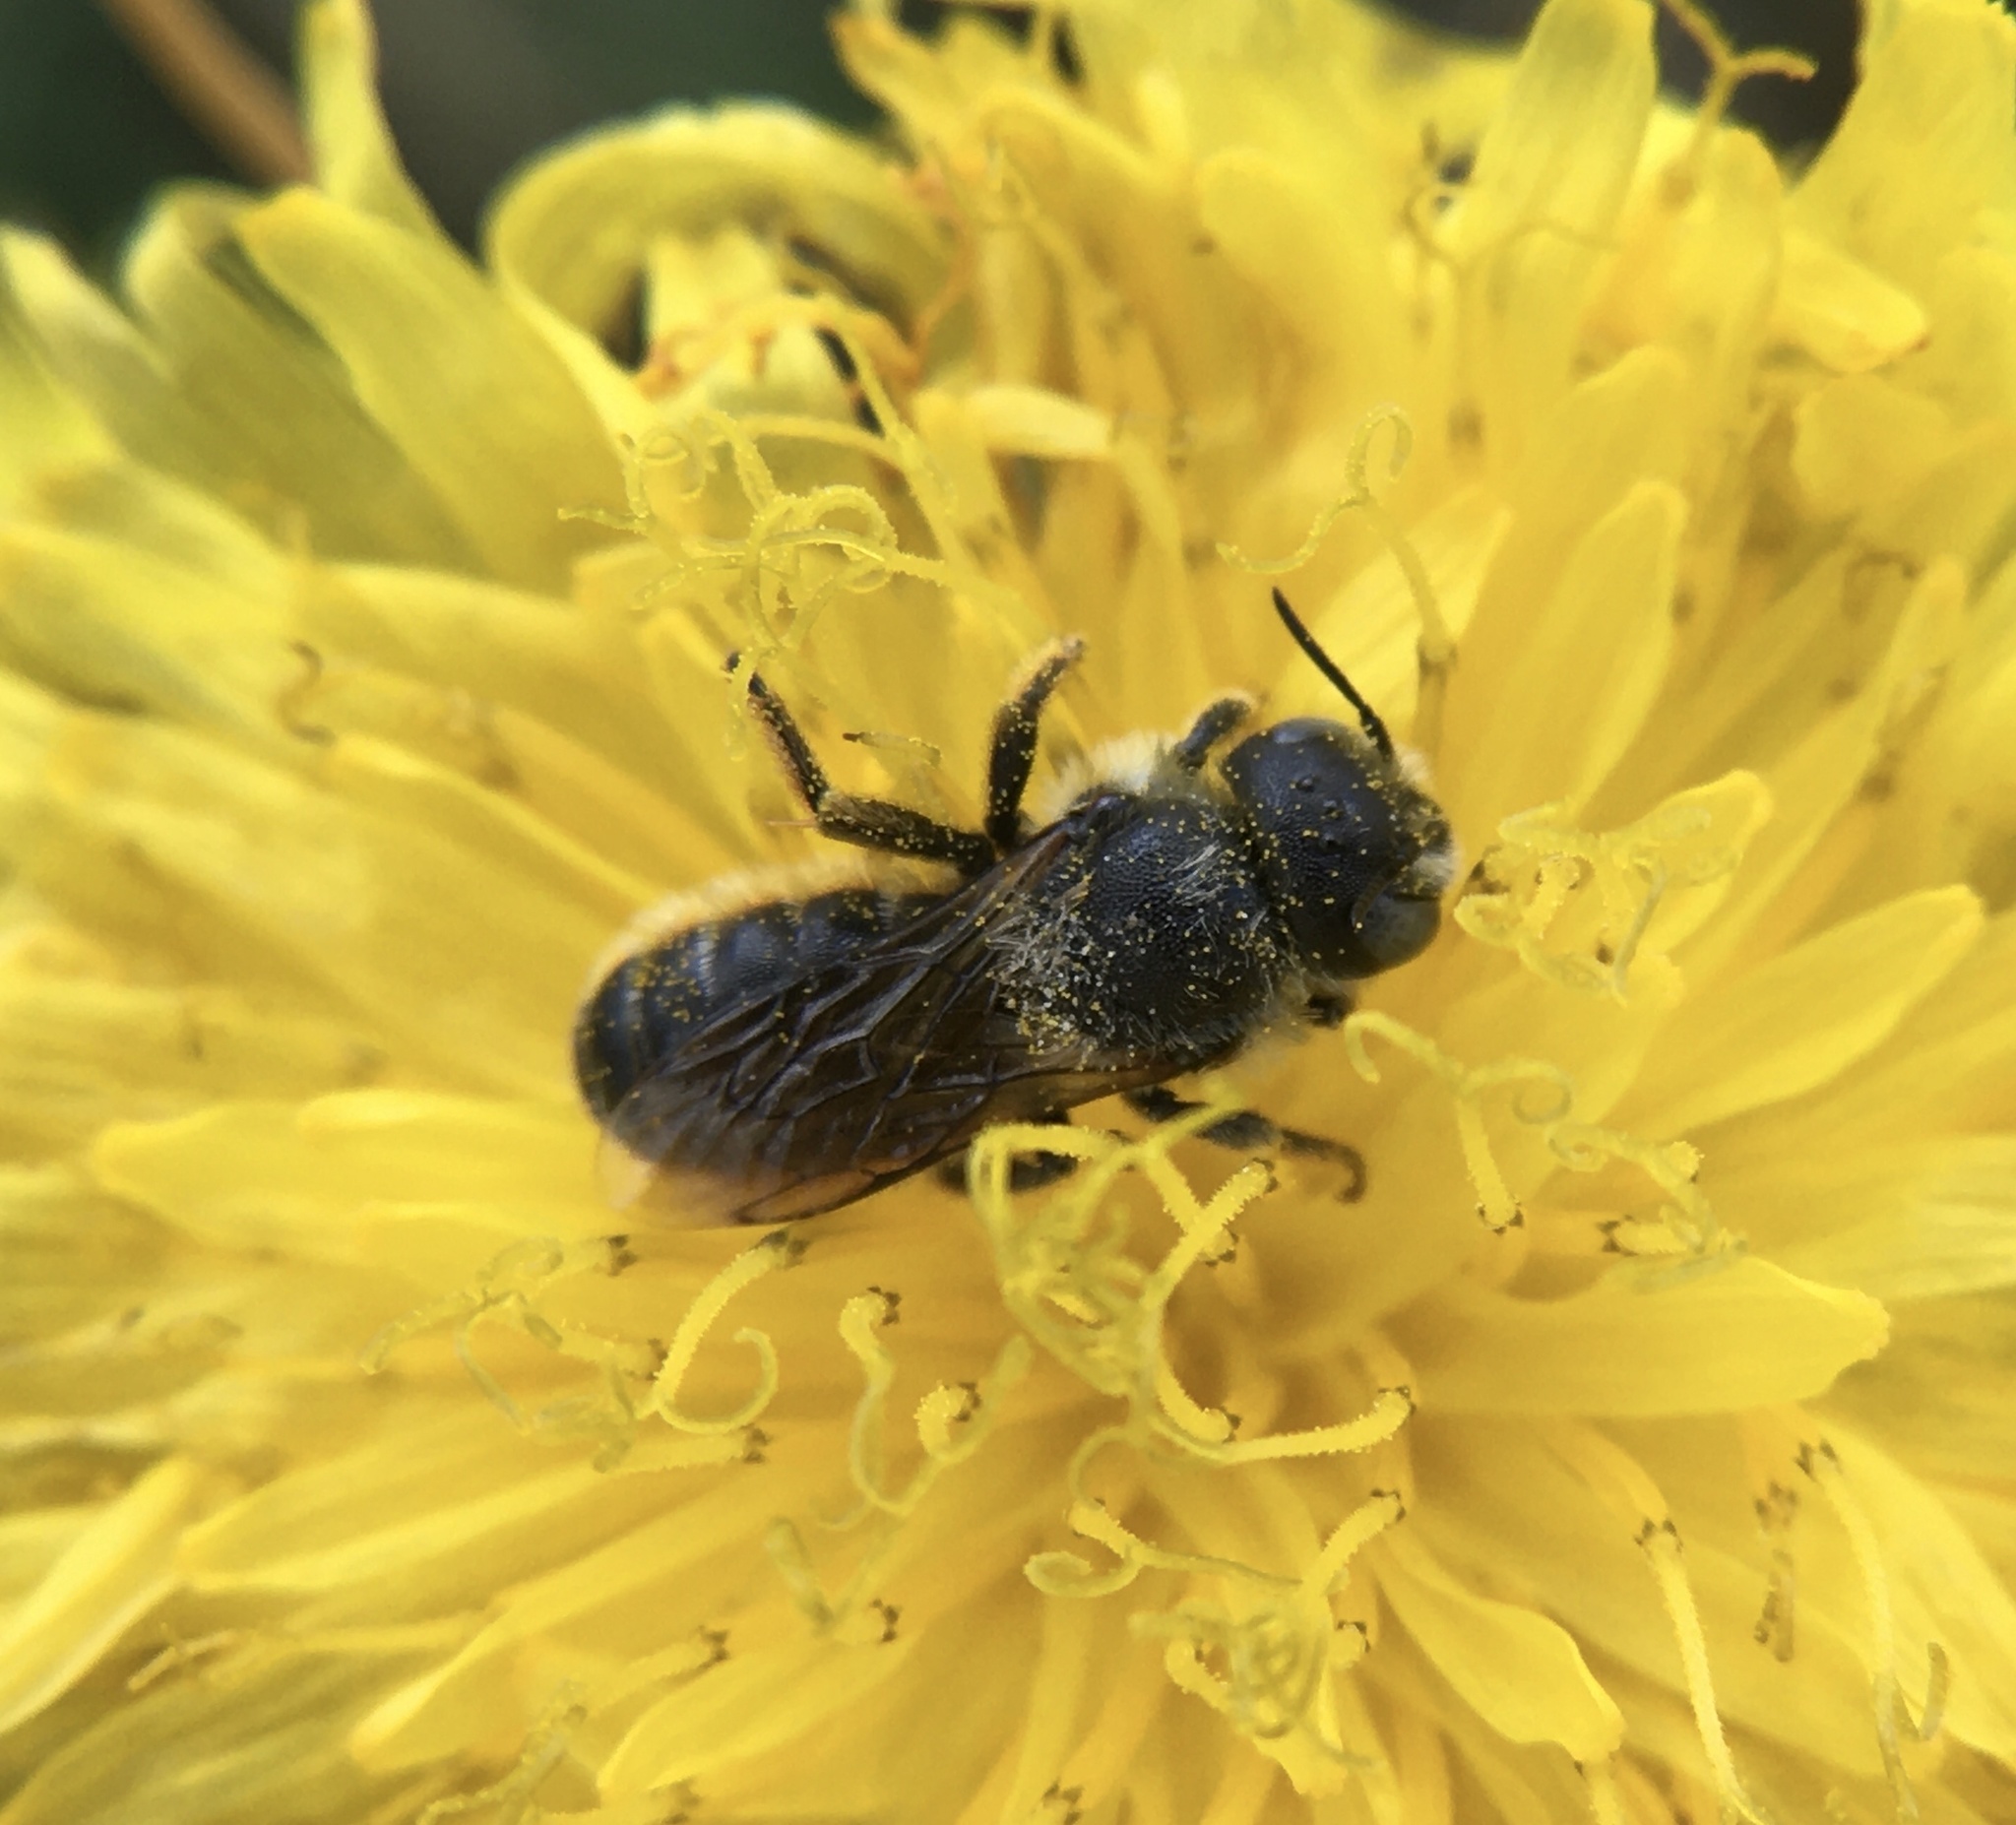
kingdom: Animalia
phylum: Arthropoda
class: Insecta
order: Hymenoptera
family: Megachilidae
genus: Osmia
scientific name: Osmia spinulosa
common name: Spined mason bee
